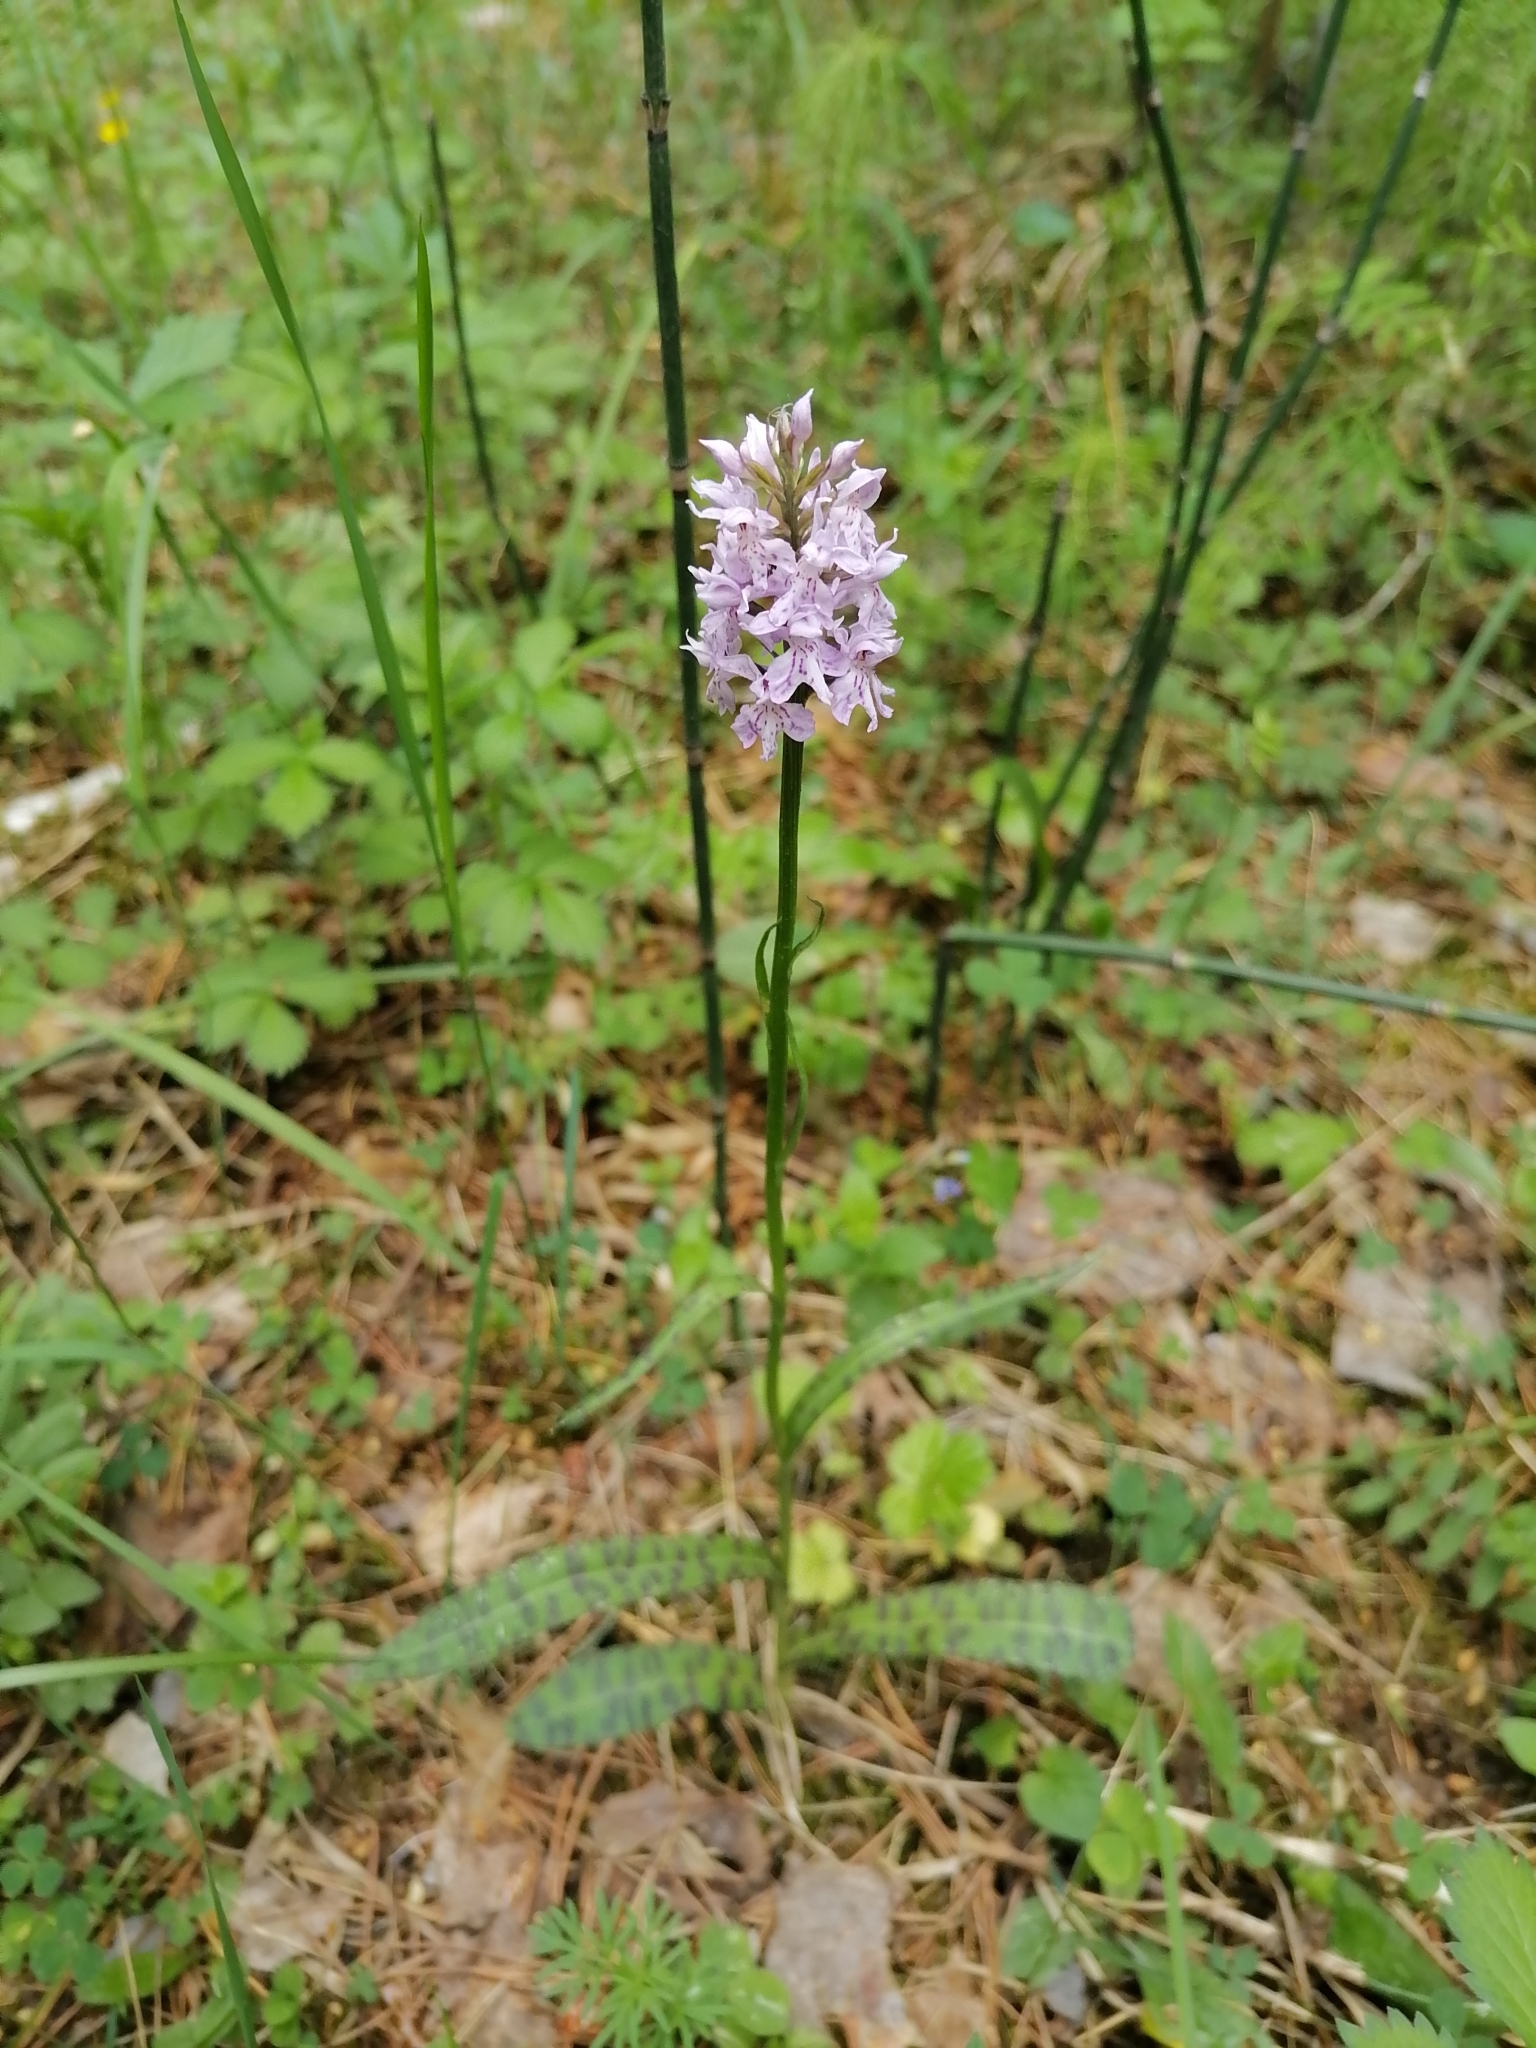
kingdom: Plantae
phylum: Tracheophyta
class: Liliopsida
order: Asparagales
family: Orchidaceae
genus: Dactylorhiza
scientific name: Dactylorhiza maculata
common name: Heath spotted-orchid
